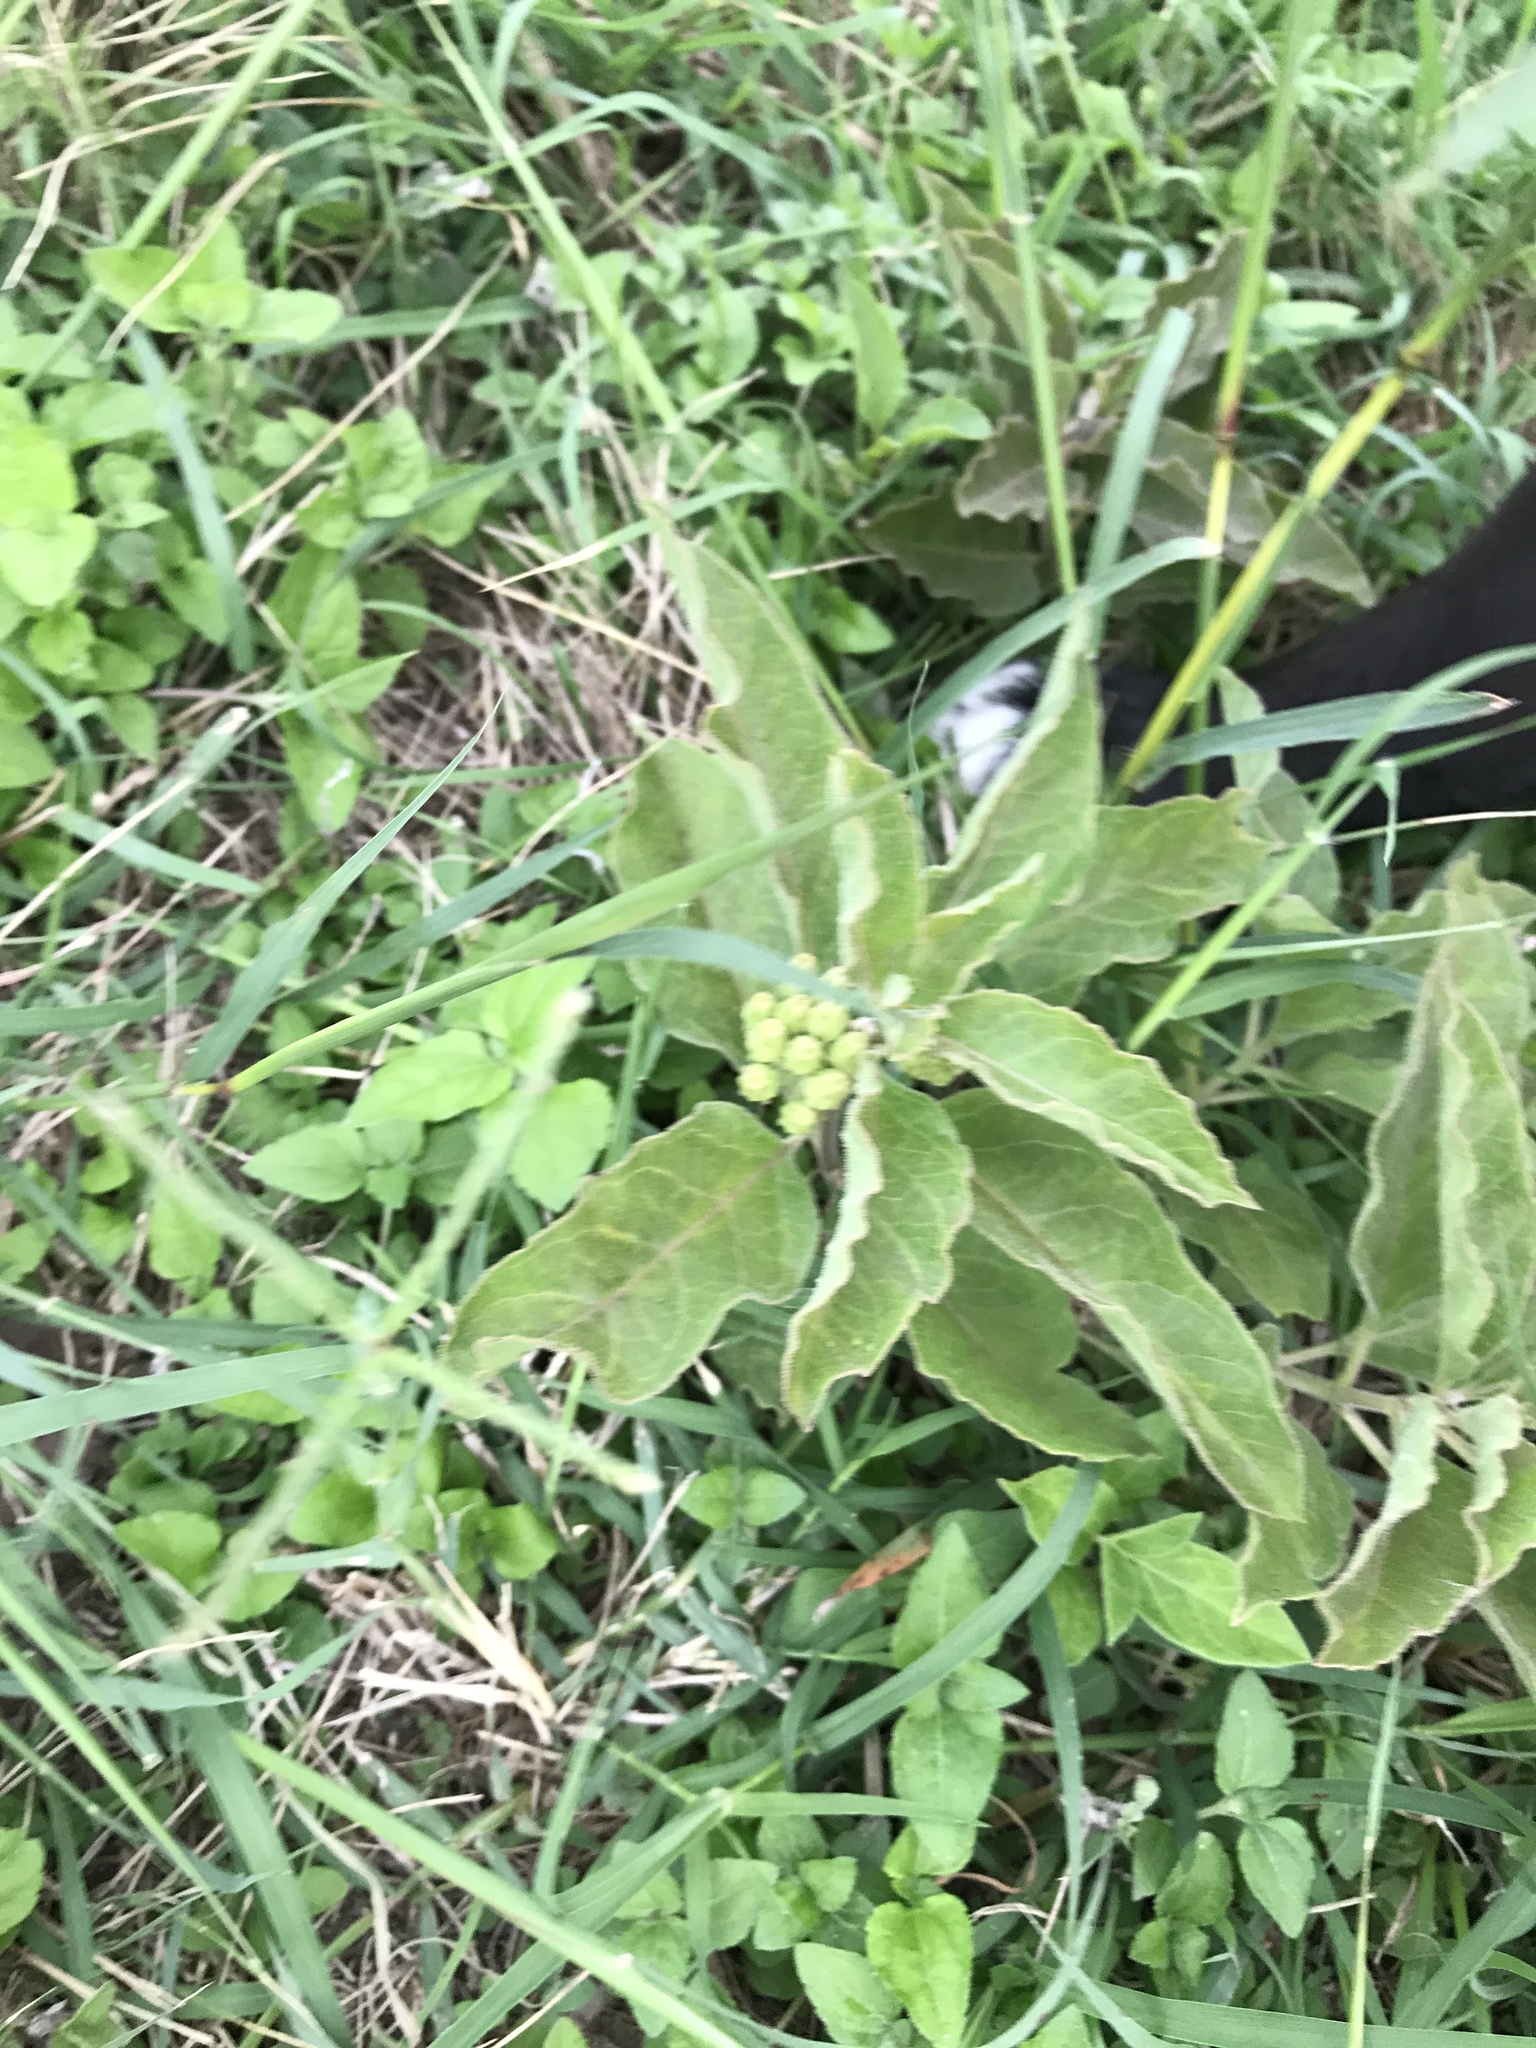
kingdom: Plantae
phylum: Tracheophyta
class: Magnoliopsida
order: Gentianales
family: Apocynaceae
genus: Asclepias
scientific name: Asclepias oenotheroides
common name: Zizotes milkweed
